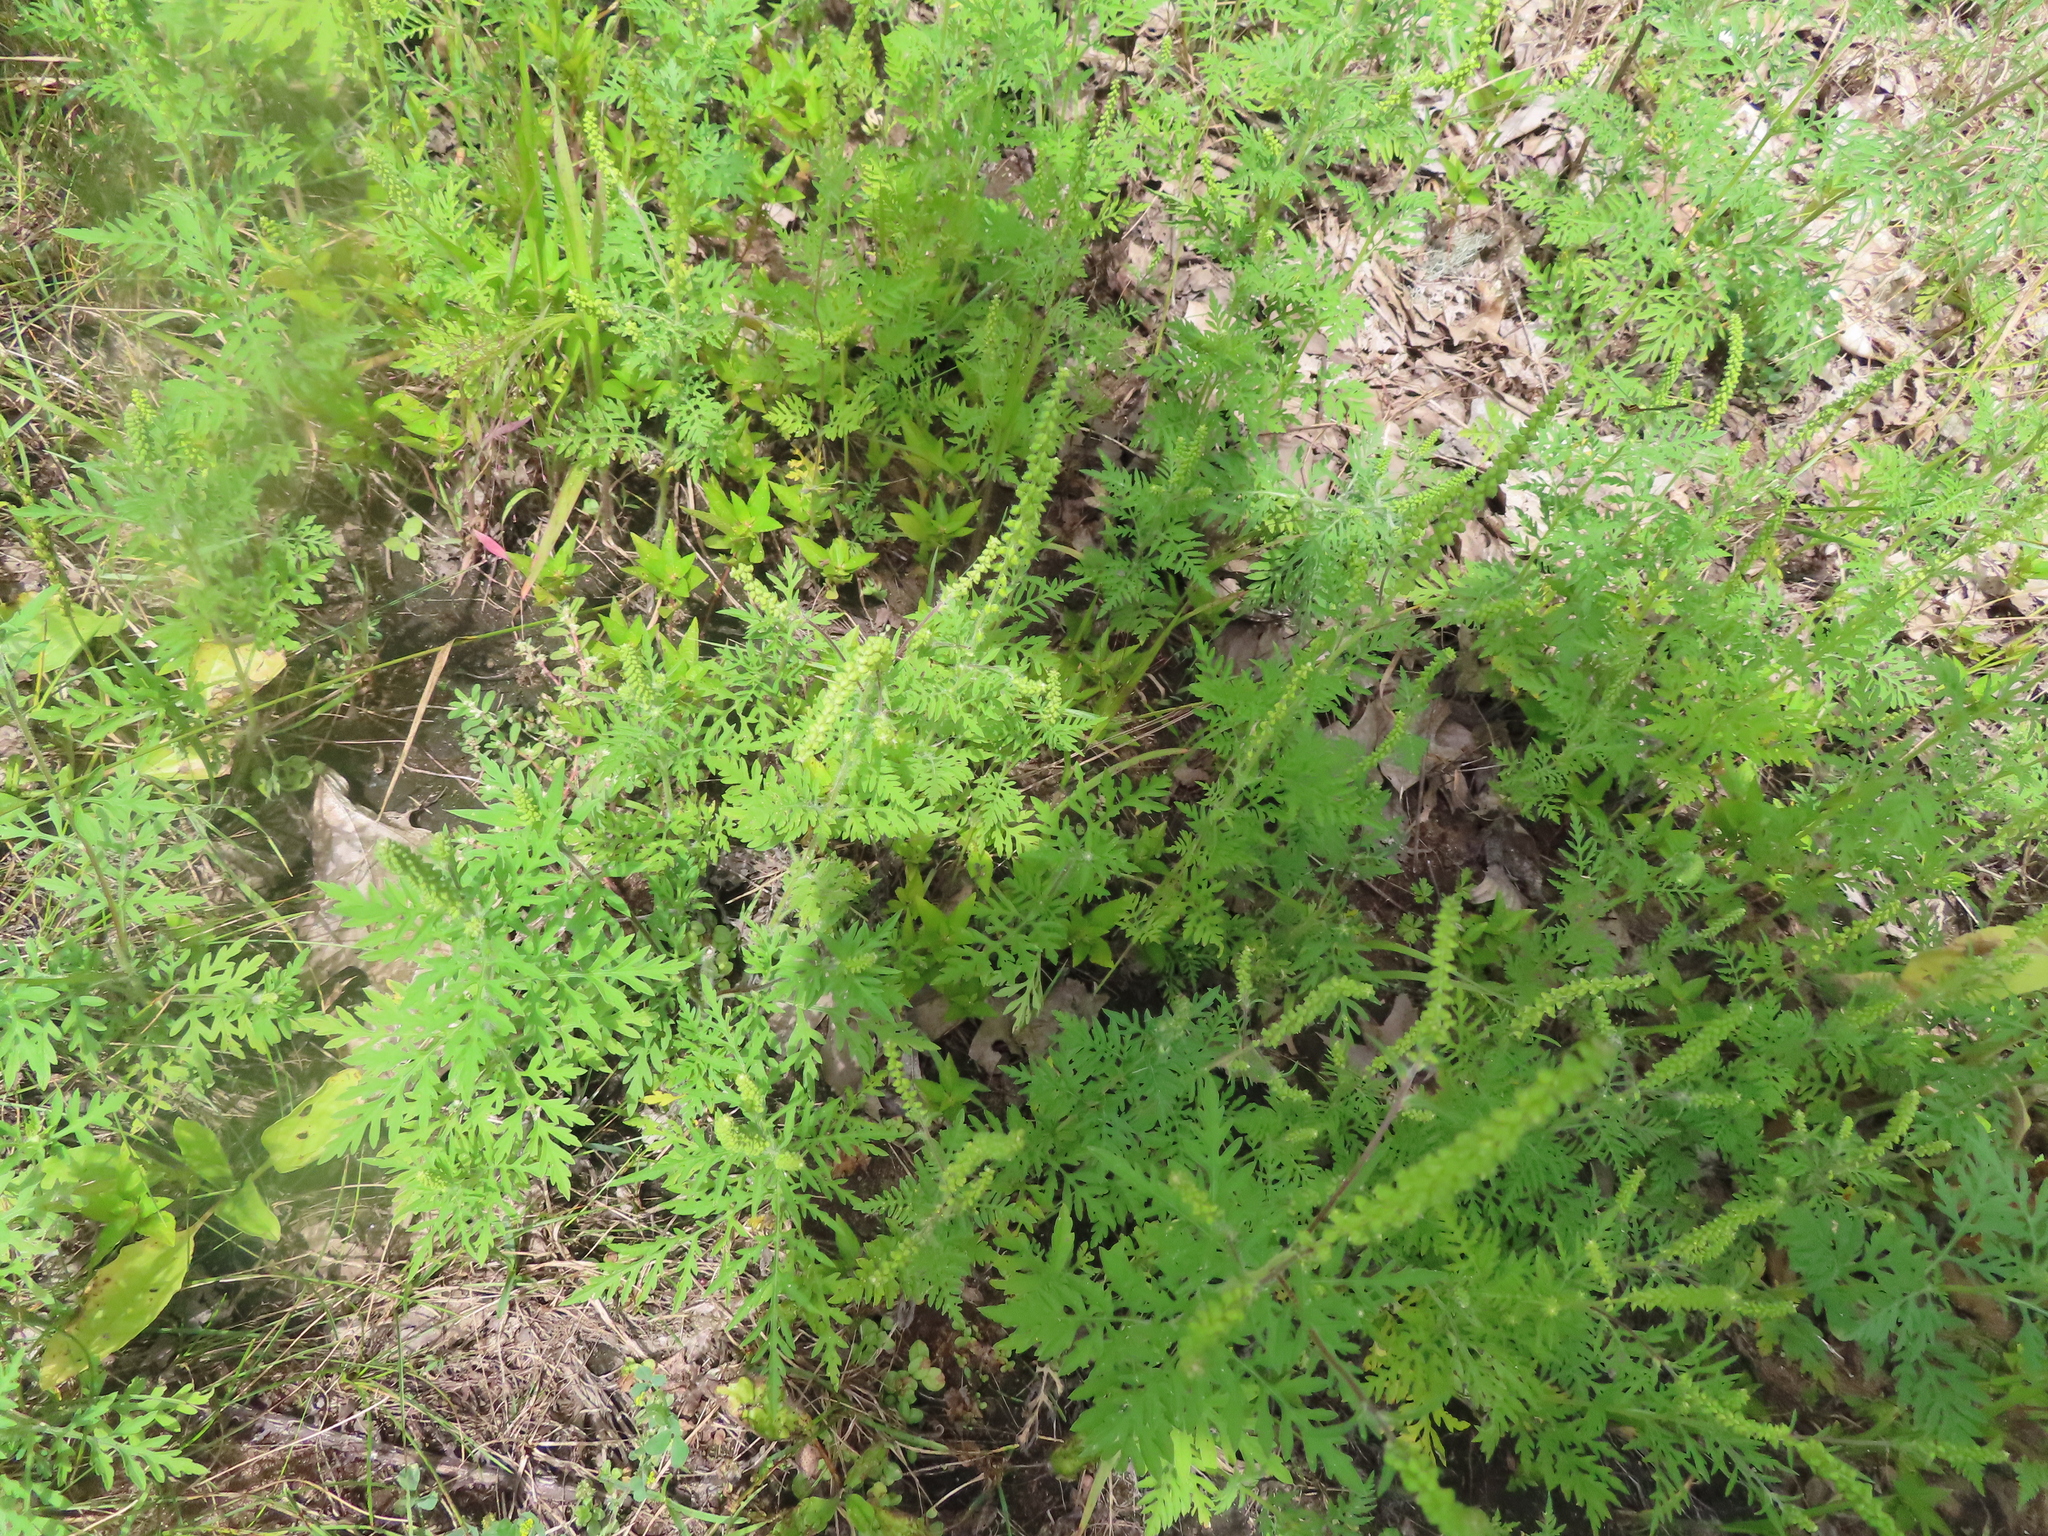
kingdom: Plantae
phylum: Tracheophyta
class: Magnoliopsida
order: Asterales
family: Asteraceae
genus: Ambrosia
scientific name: Ambrosia artemisiifolia
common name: Annual ragweed
